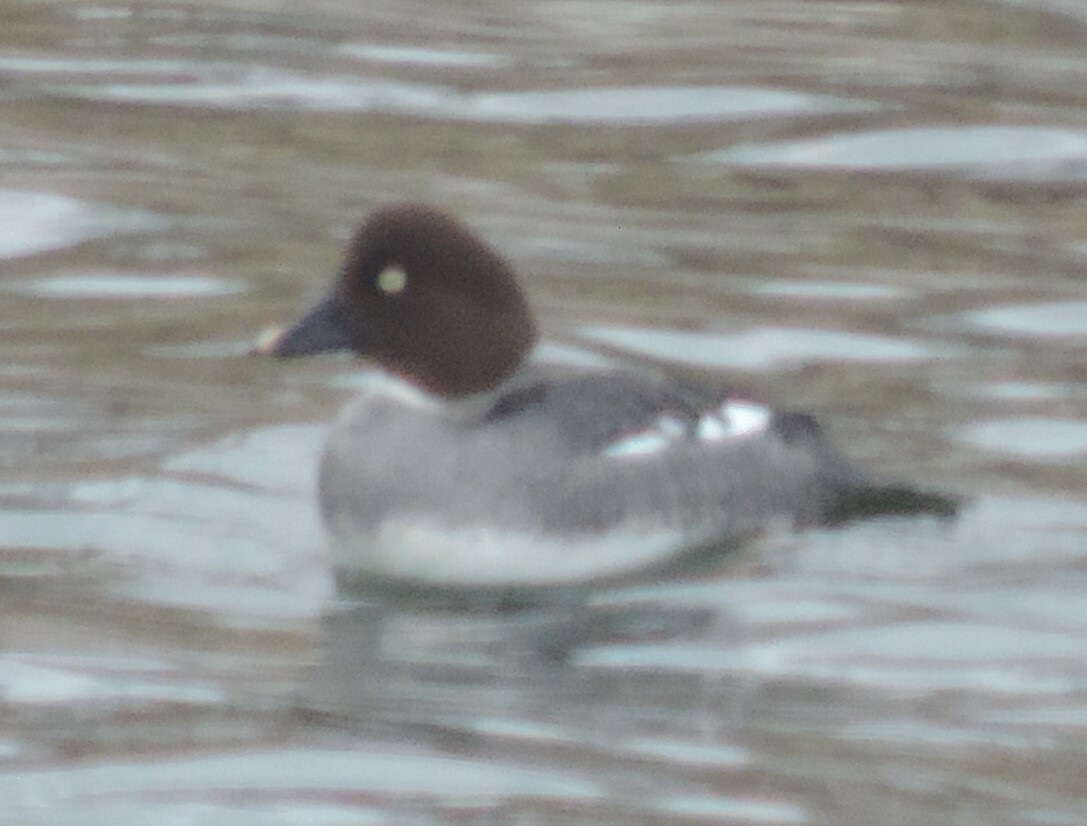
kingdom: Animalia
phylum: Chordata
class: Aves
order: Anseriformes
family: Anatidae
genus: Bucephala
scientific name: Bucephala clangula
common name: Common goldeneye
